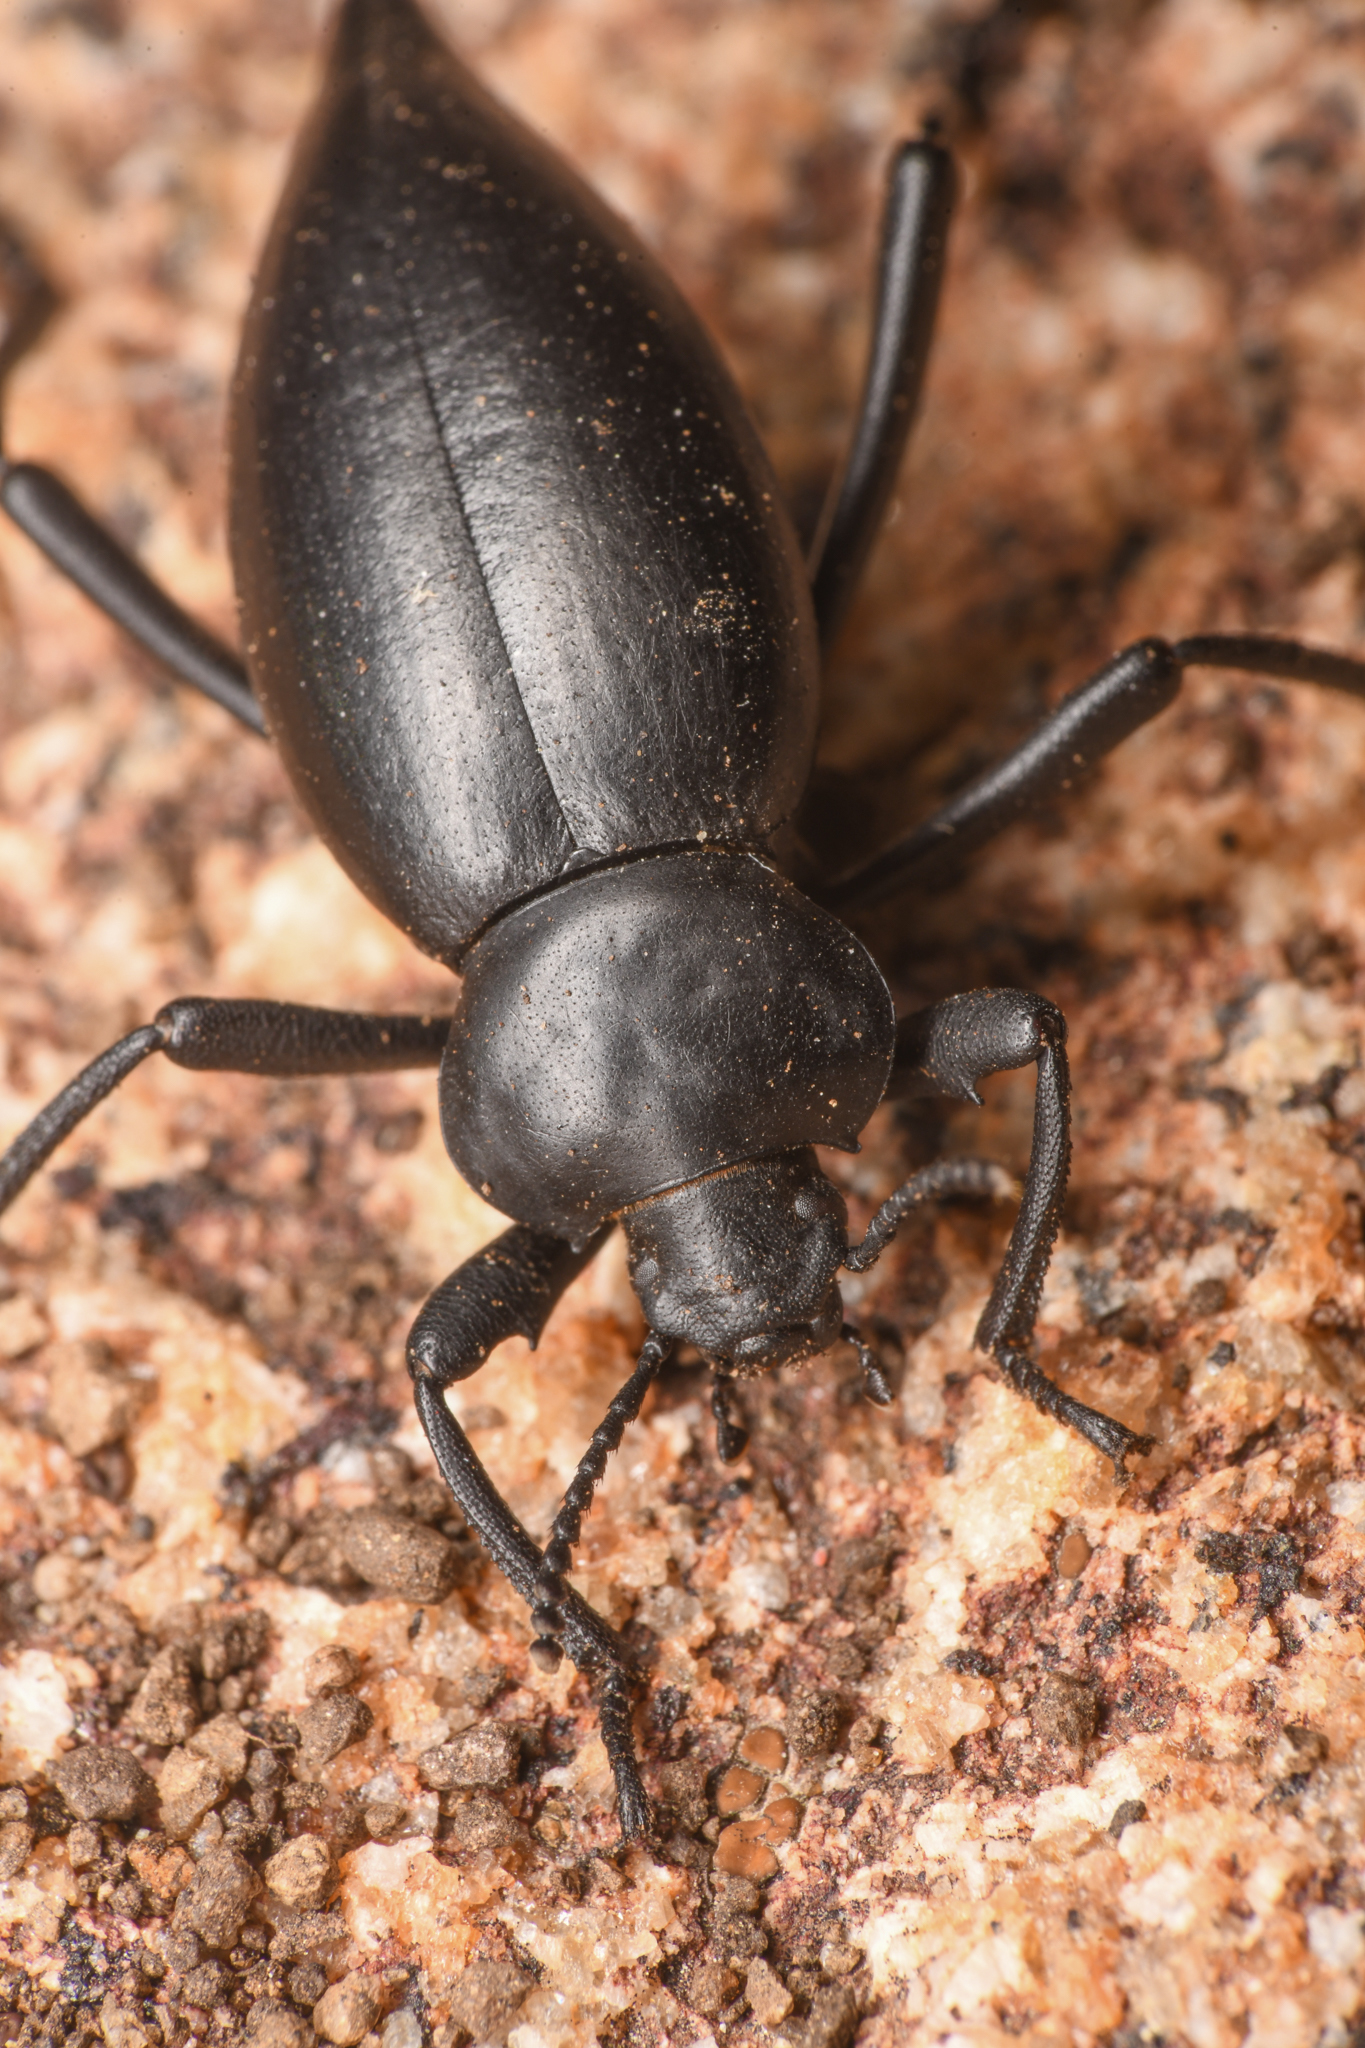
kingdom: Animalia
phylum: Arthropoda
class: Insecta
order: Coleoptera
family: Tenebrionidae
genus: Eleodes
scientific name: Eleodes acuticauda
